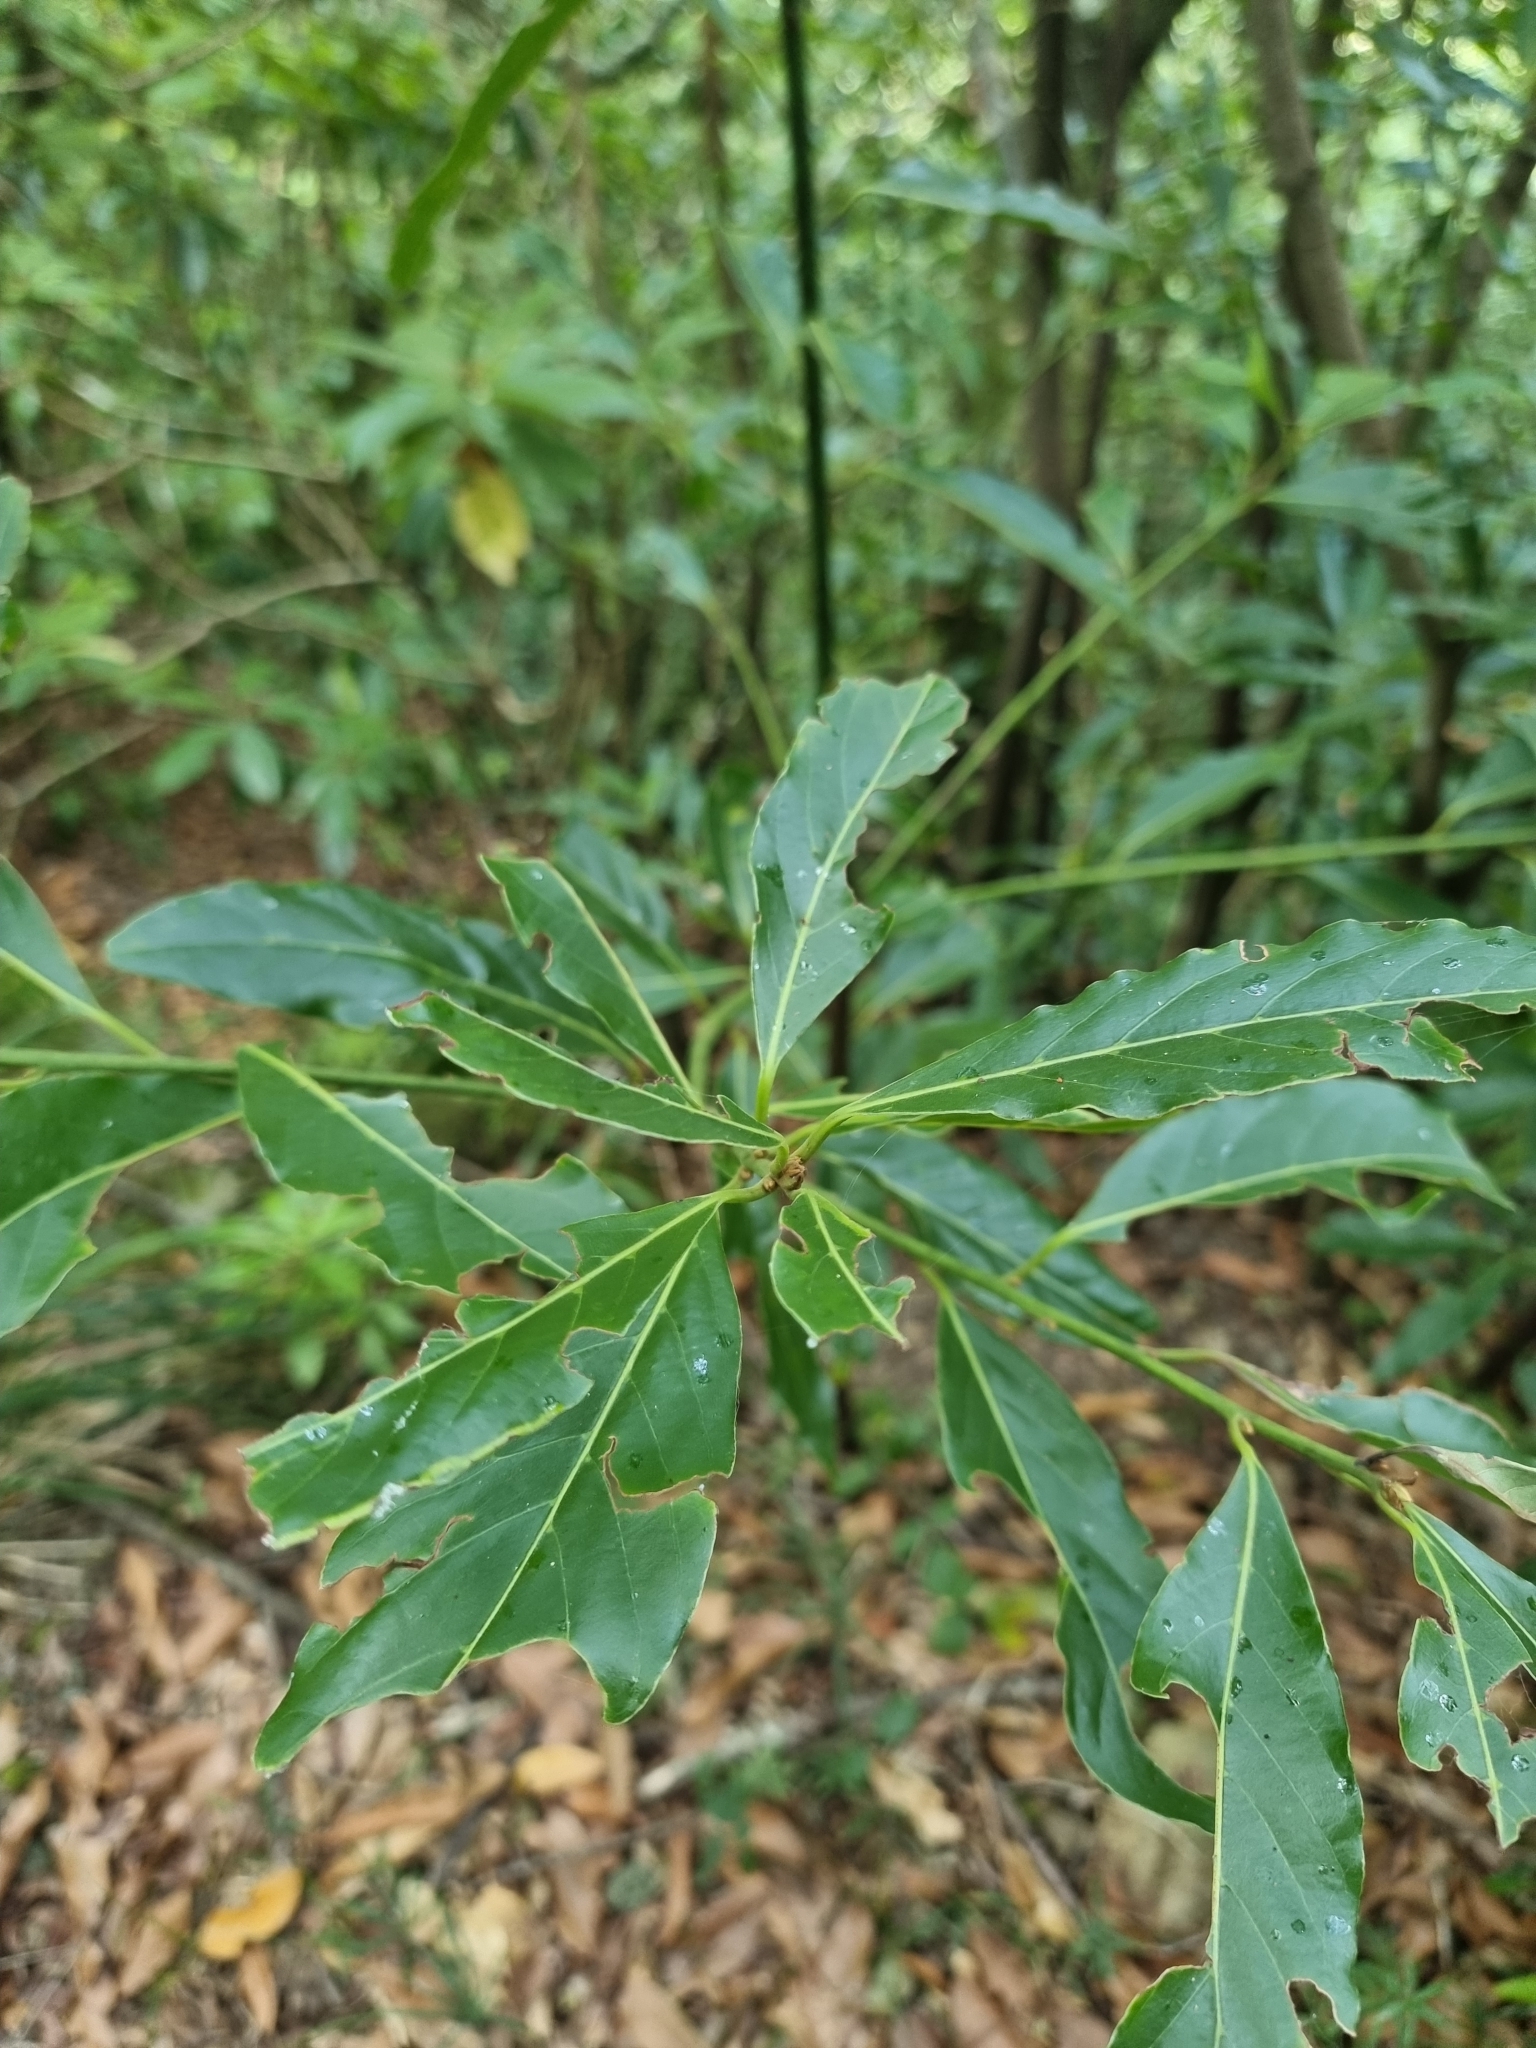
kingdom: Plantae
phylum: Tracheophyta
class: Magnoliopsida
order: Laurales
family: Lauraceae
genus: Laurus
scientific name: Laurus novocanariensis
